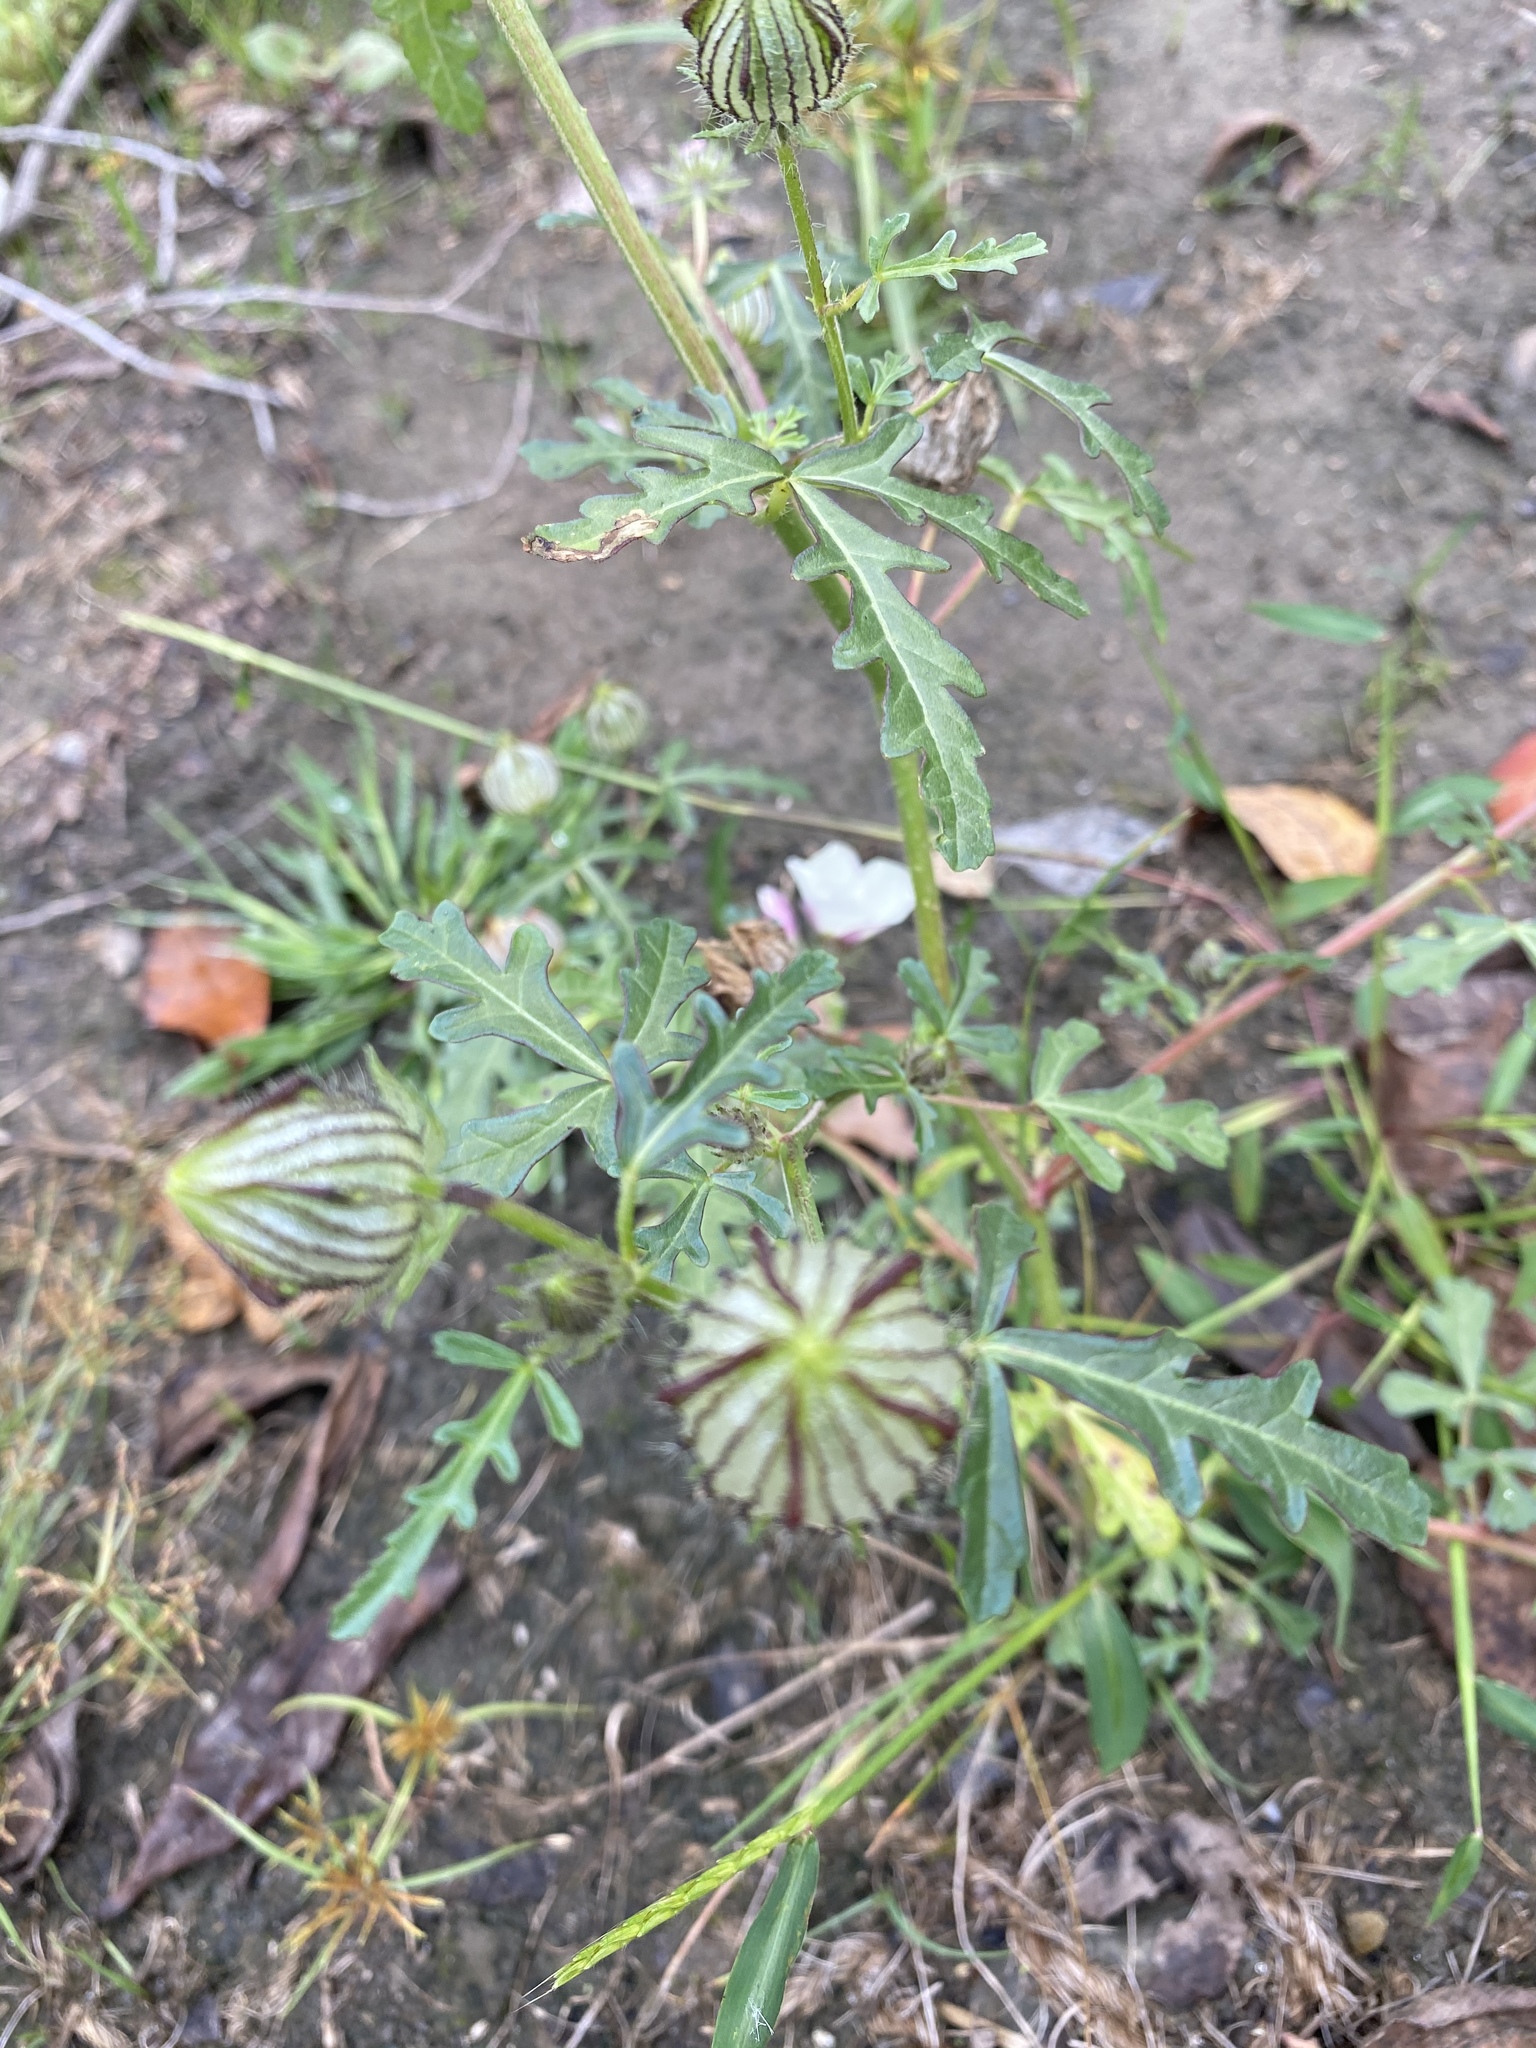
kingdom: Plantae
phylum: Tracheophyta
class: Magnoliopsida
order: Malvales
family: Malvaceae
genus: Hibiscus
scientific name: Hibiscus trionum
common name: Bladder ketmia
